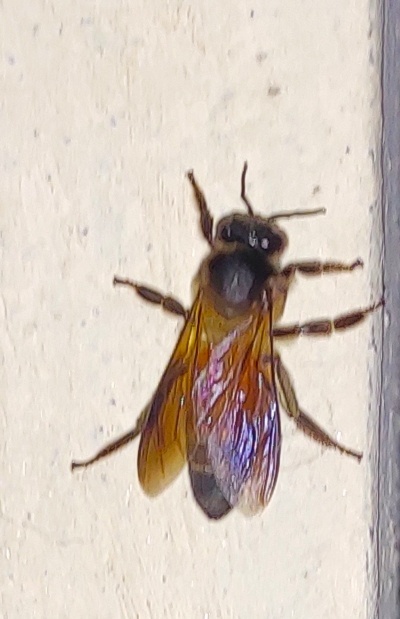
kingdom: Animalia
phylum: Arthropoda
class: Insecta
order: Hymenoptera
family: Apidae
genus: Apis
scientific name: Apis dorsata
